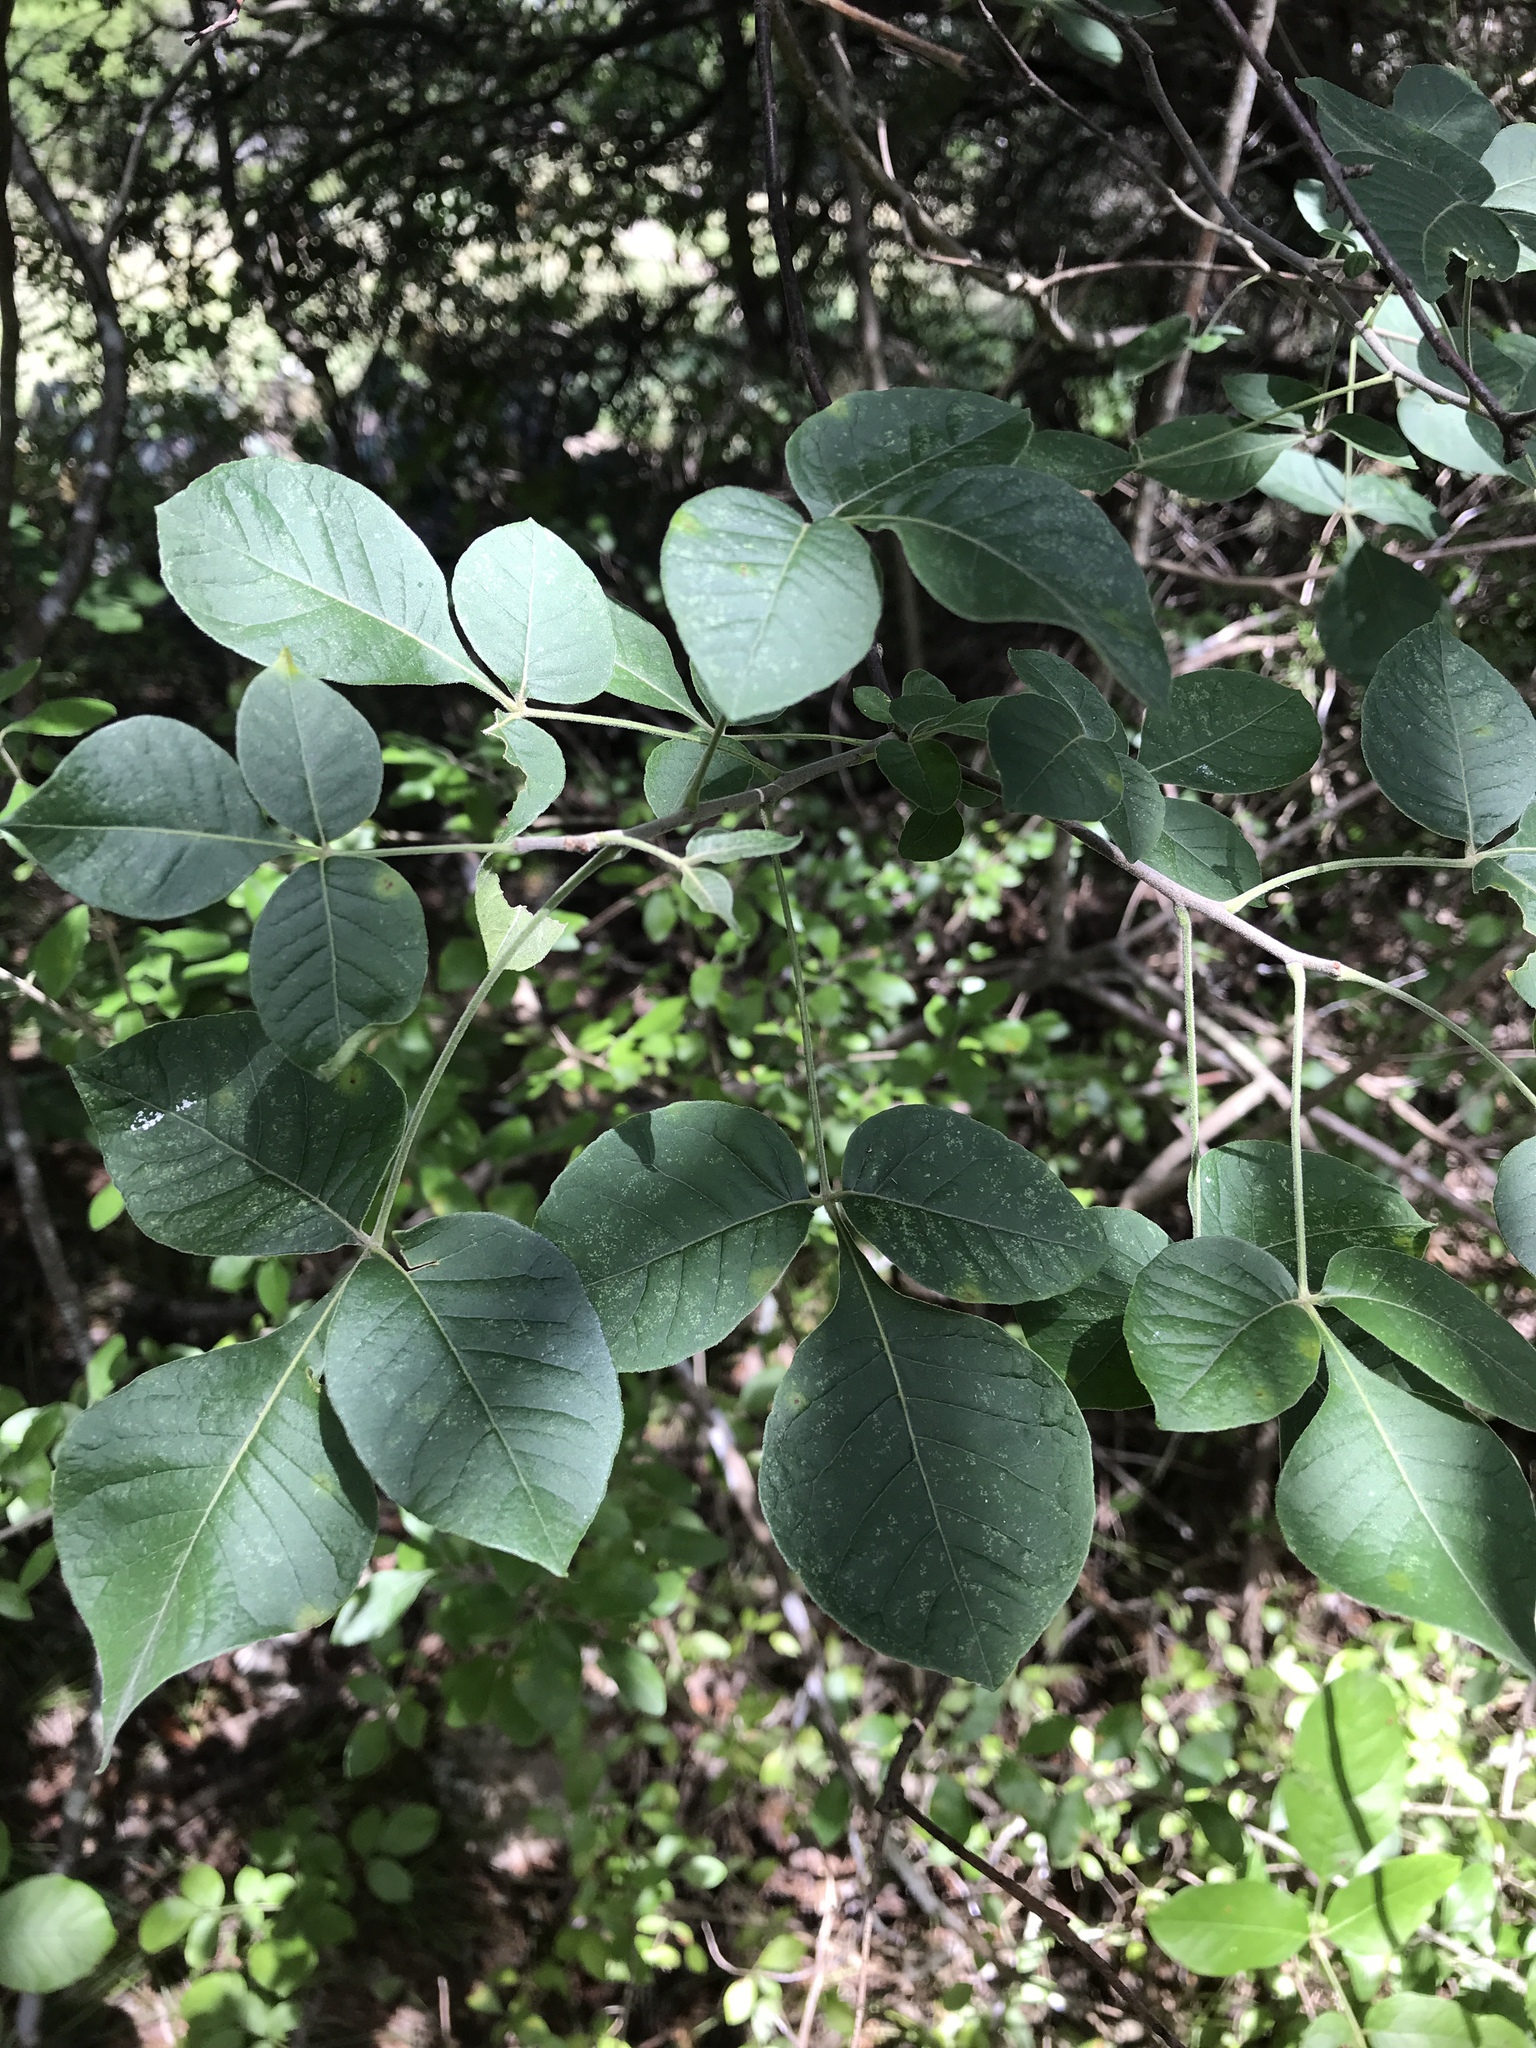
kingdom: Plantae
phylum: Tracheophyta
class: Magnoliopsida
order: Sapindales
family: Rutaceae
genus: Ptelea
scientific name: Ptelea trifoliata
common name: Common hop-tree
